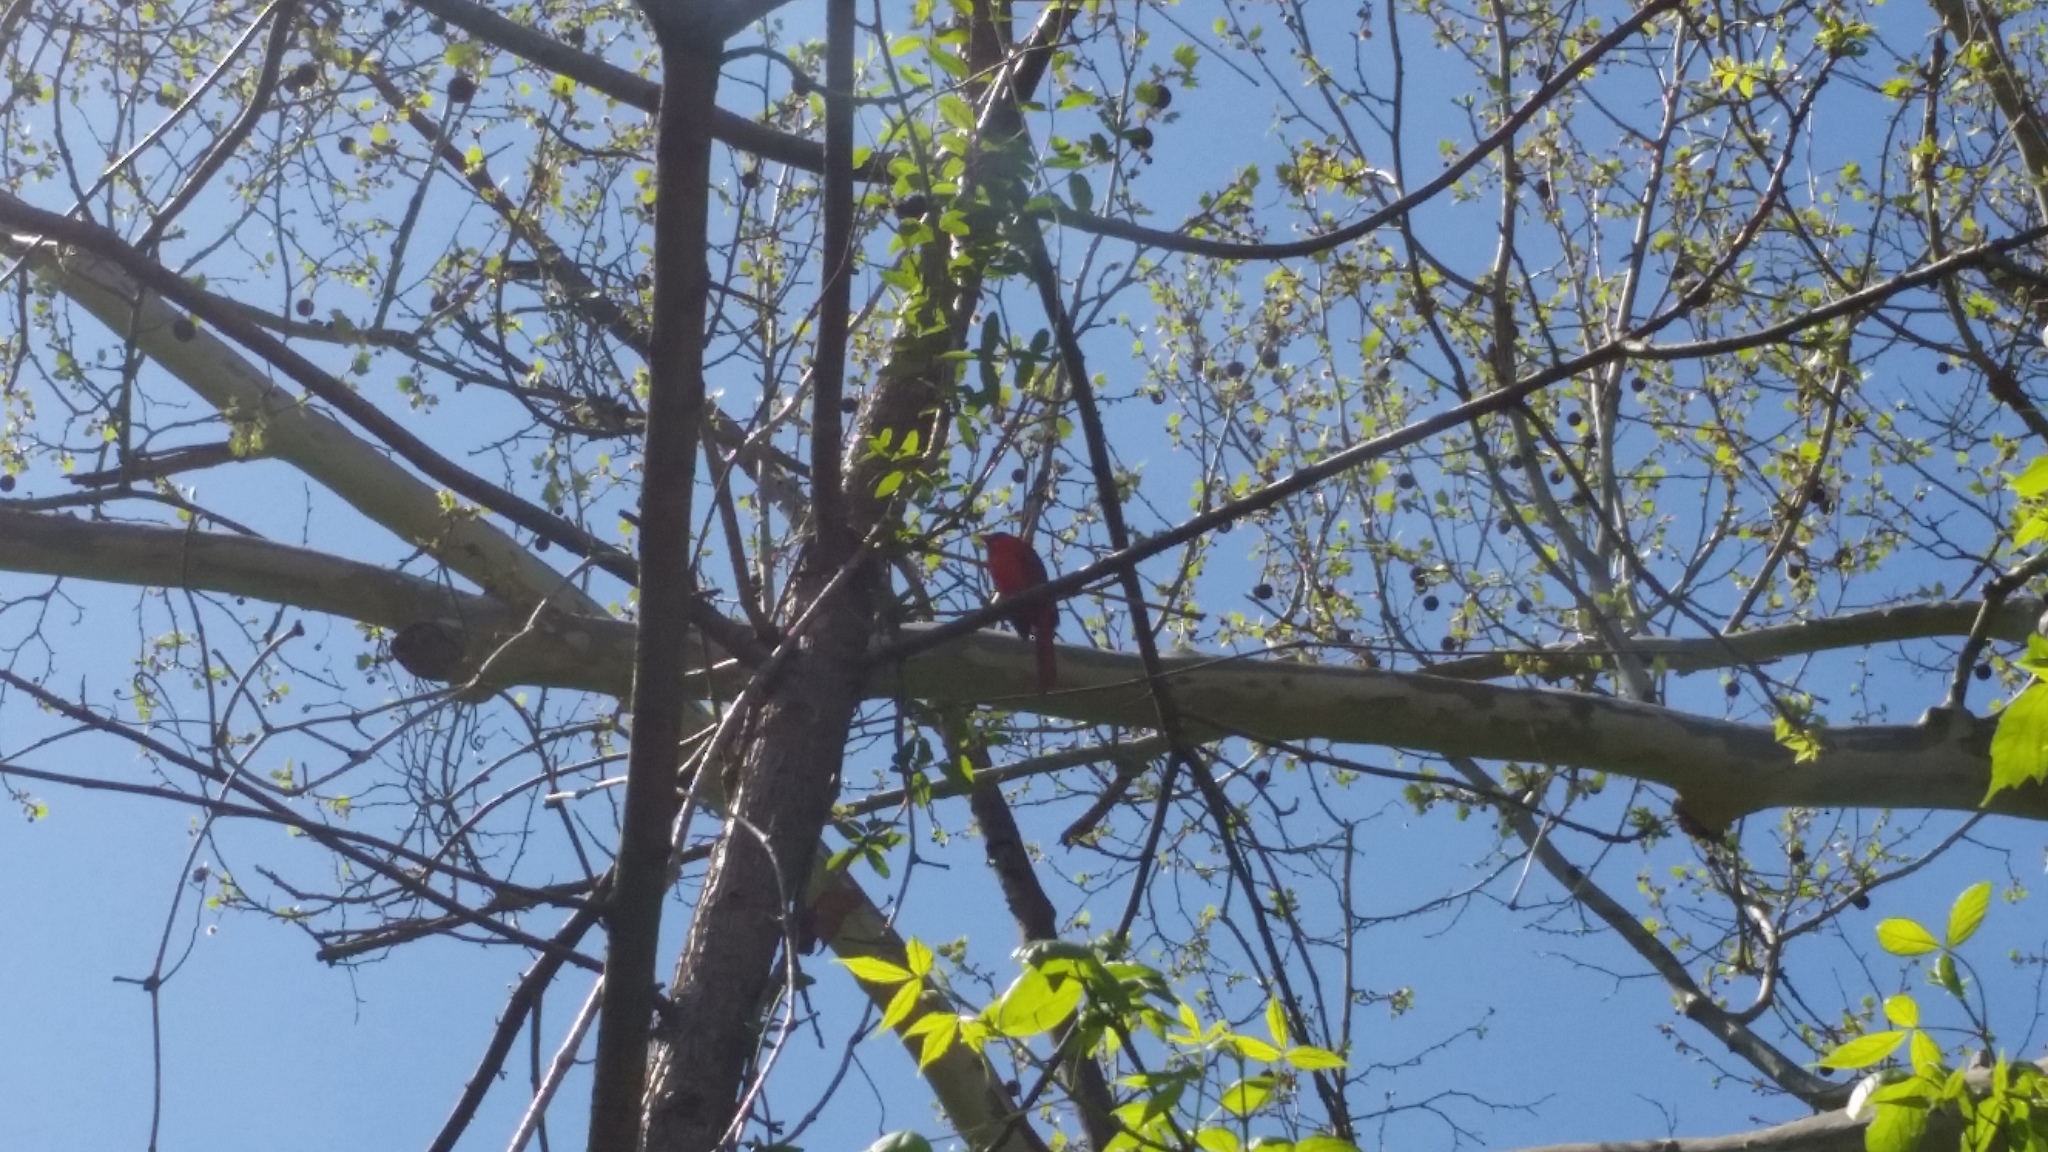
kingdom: Animalia
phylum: Chordata
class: Aves
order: Passeriformes
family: Cardinalidae
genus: Cardinalis
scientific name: Cardinalis cardinalis
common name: Northern cardinal
